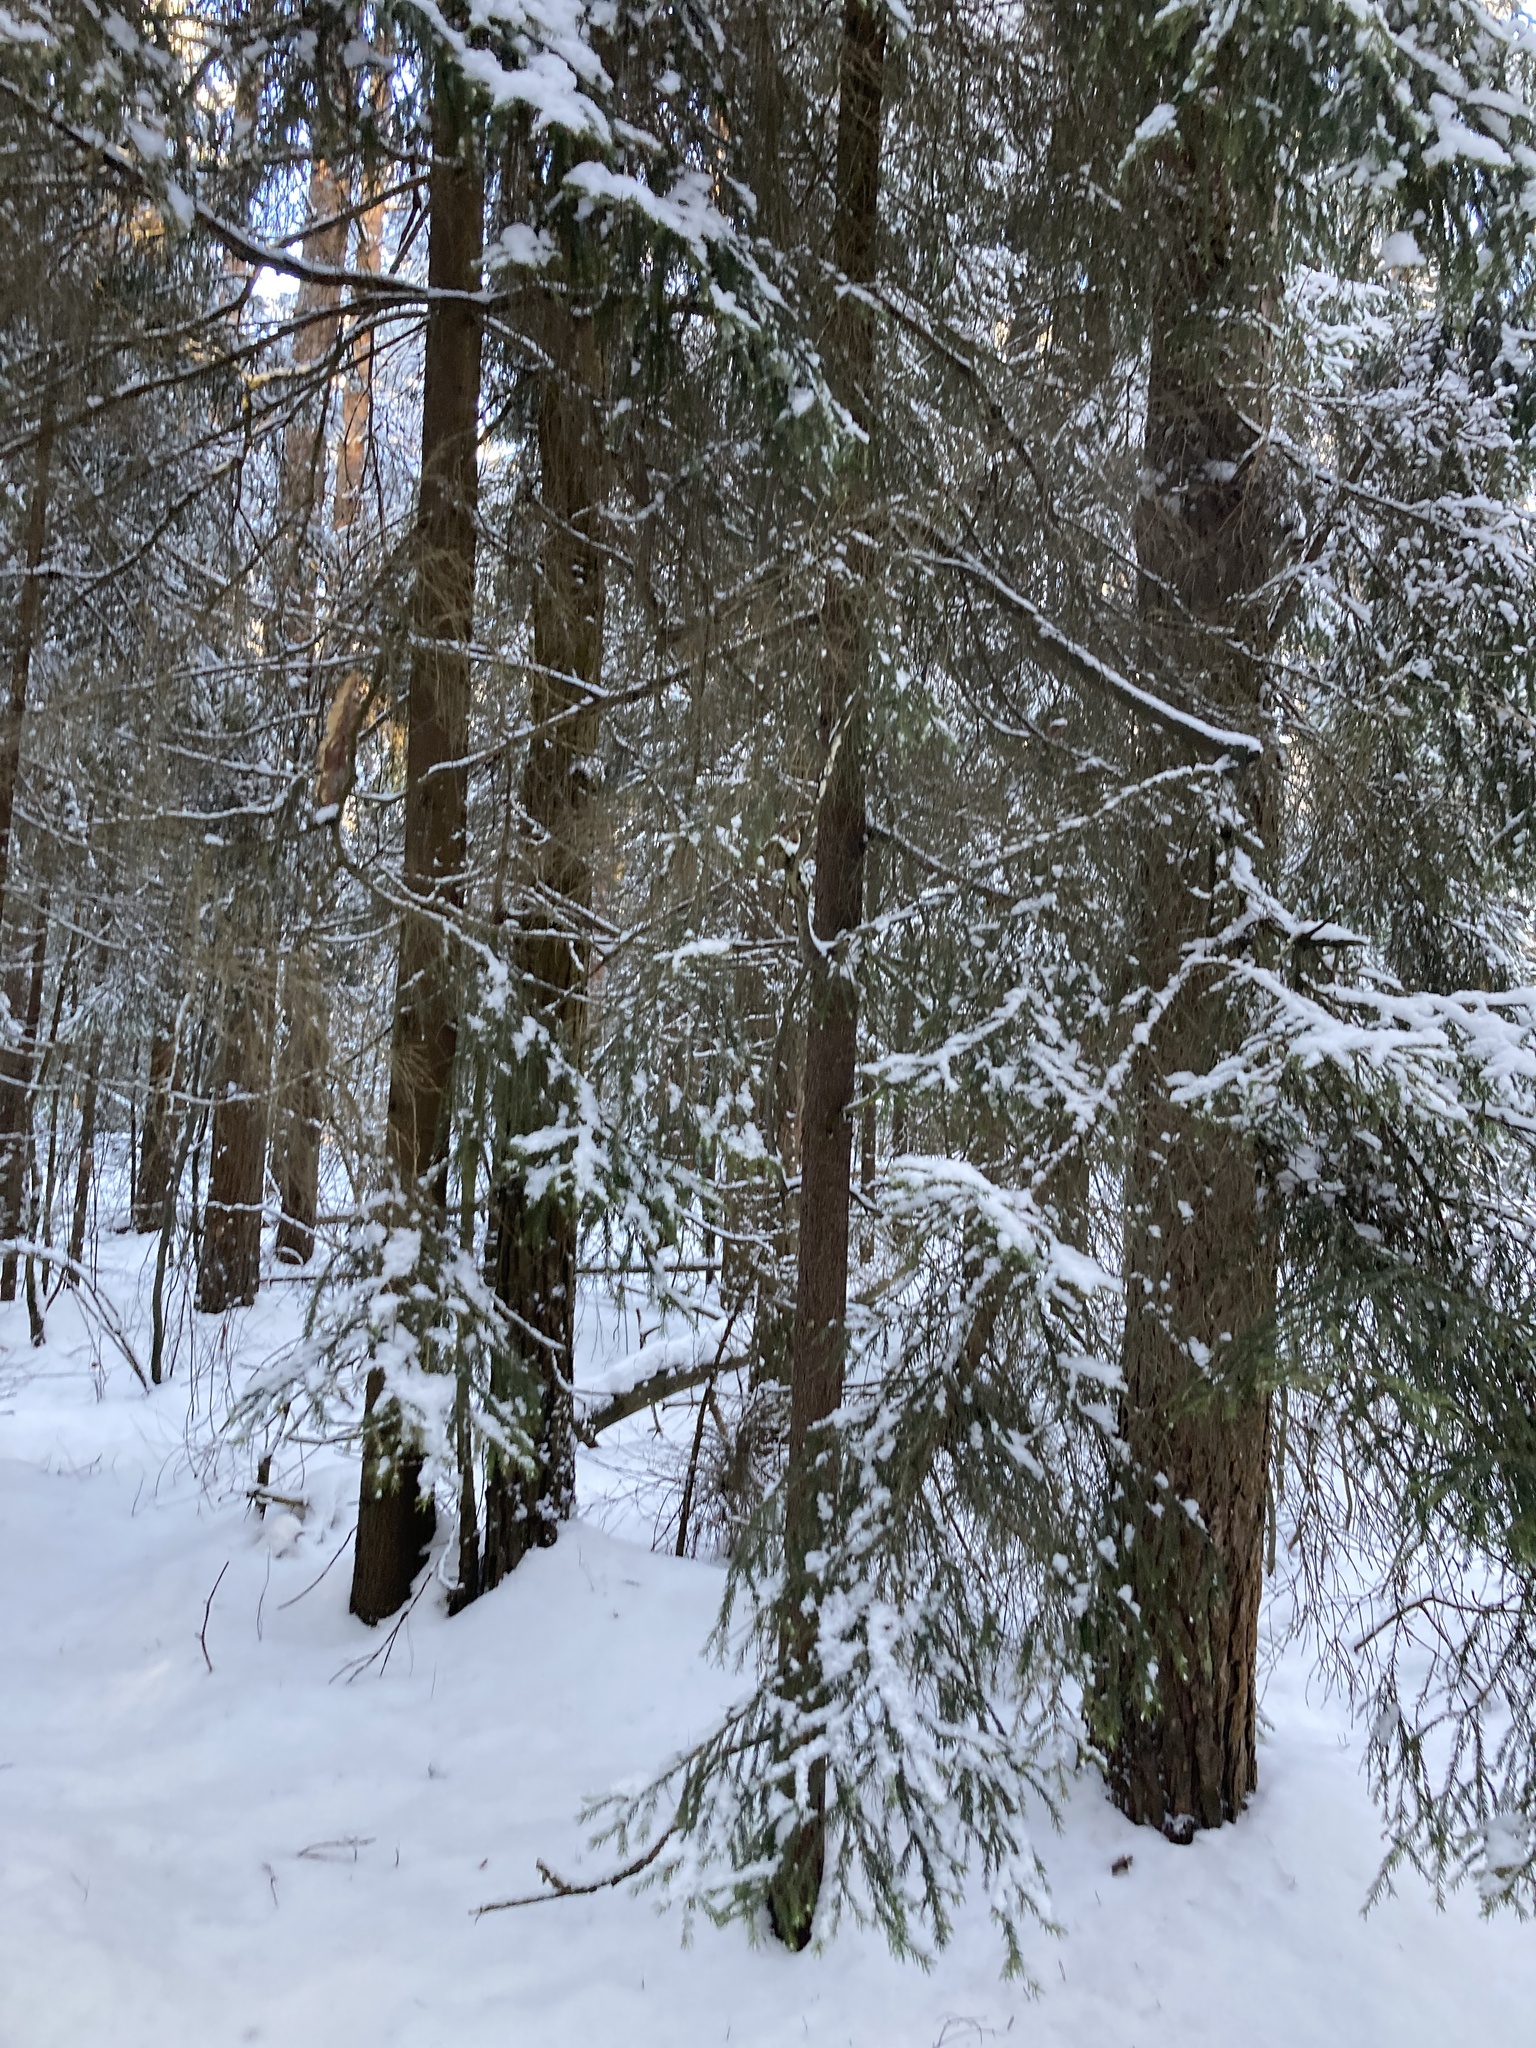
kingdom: Plantae
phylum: Tracheophyta
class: Pinopsida
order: Pinales
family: Pinaceae
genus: Picea
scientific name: Picea abies
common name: Norway spruce
